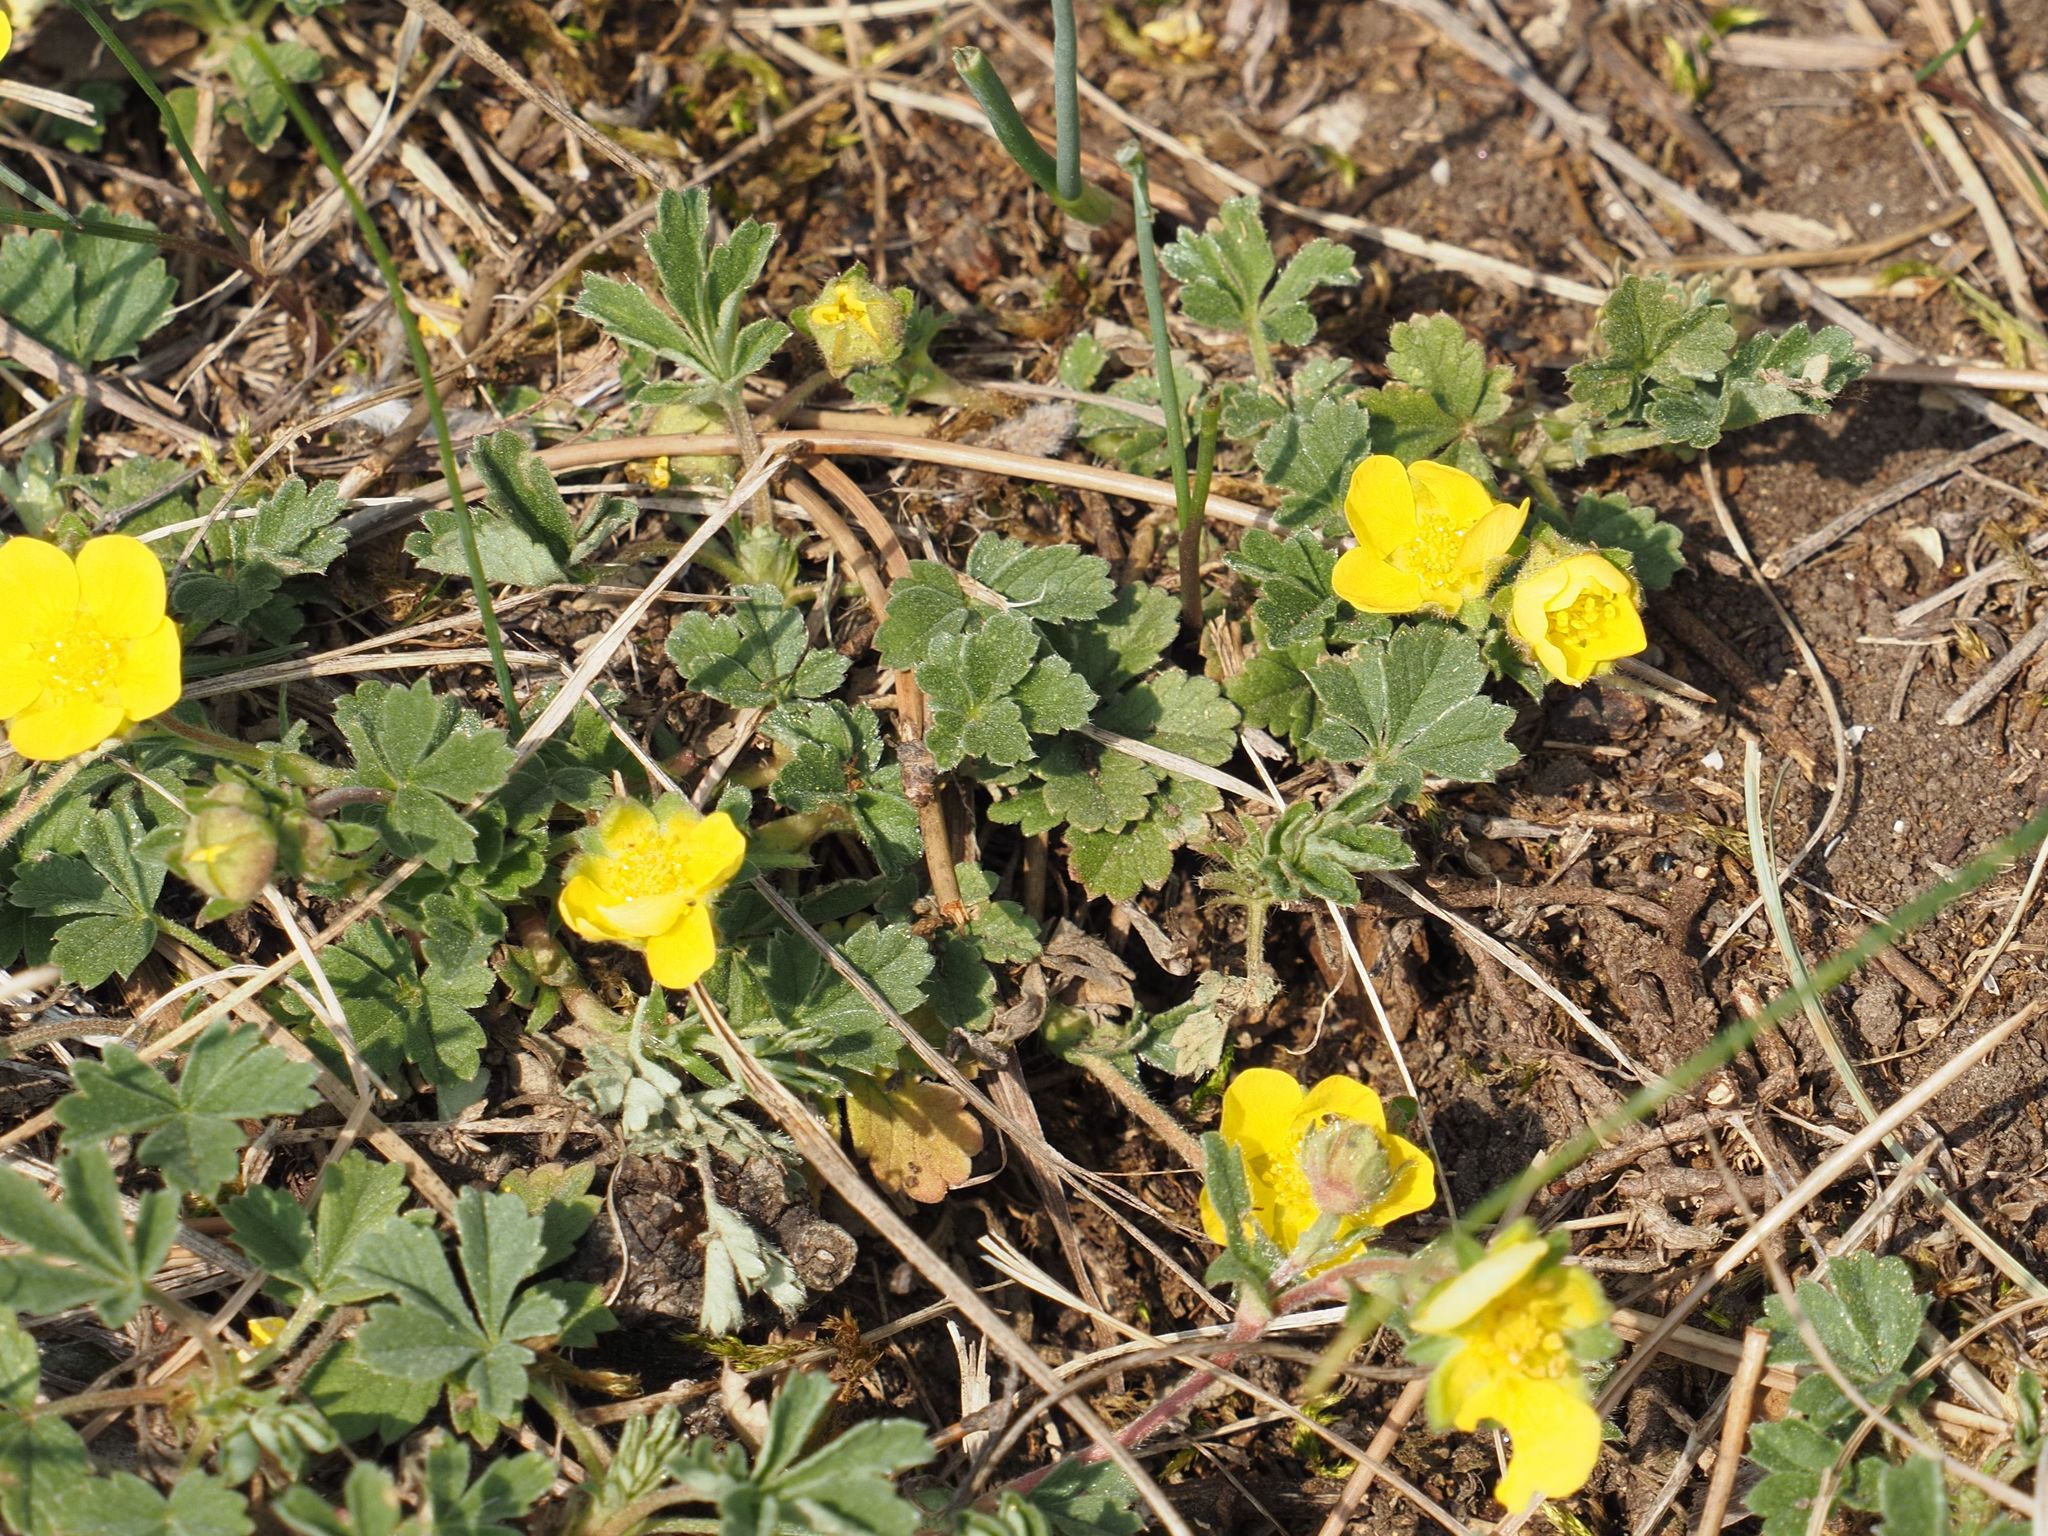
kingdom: Plantae
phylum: Tracheophyta
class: Magnoliopsida
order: Rosales
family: Rosaceae
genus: Potentilla
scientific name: Potentilla incana
